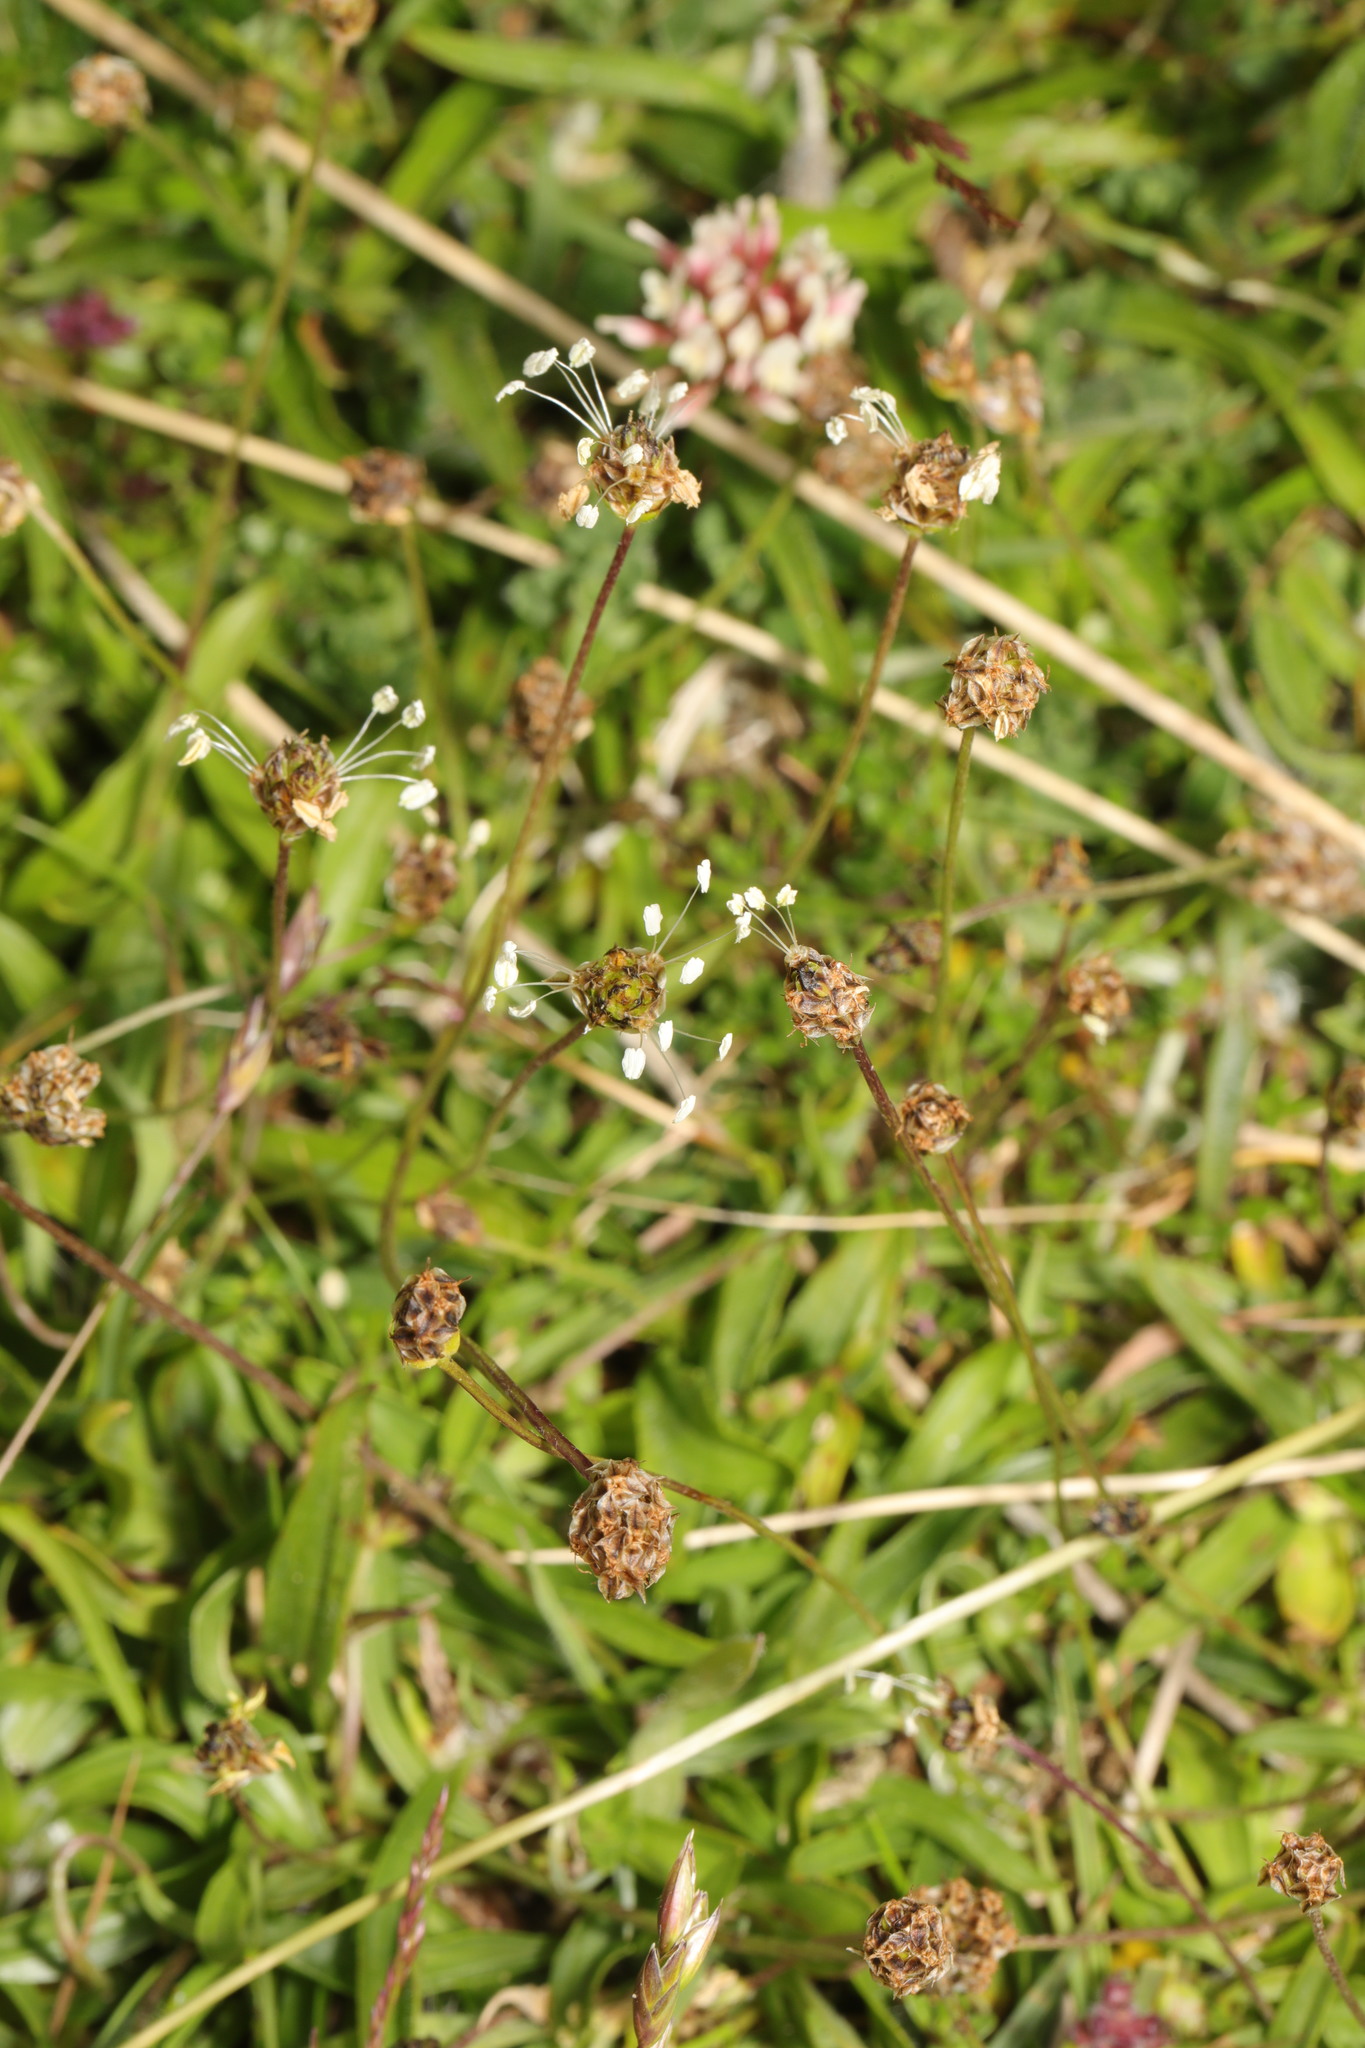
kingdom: Plantae
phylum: Tracheophyta
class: Magnoliopsida
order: Lamiales
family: Plantaginaceae
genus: Plantago
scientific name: Plantago lanceolata
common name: Ribwort plantain
